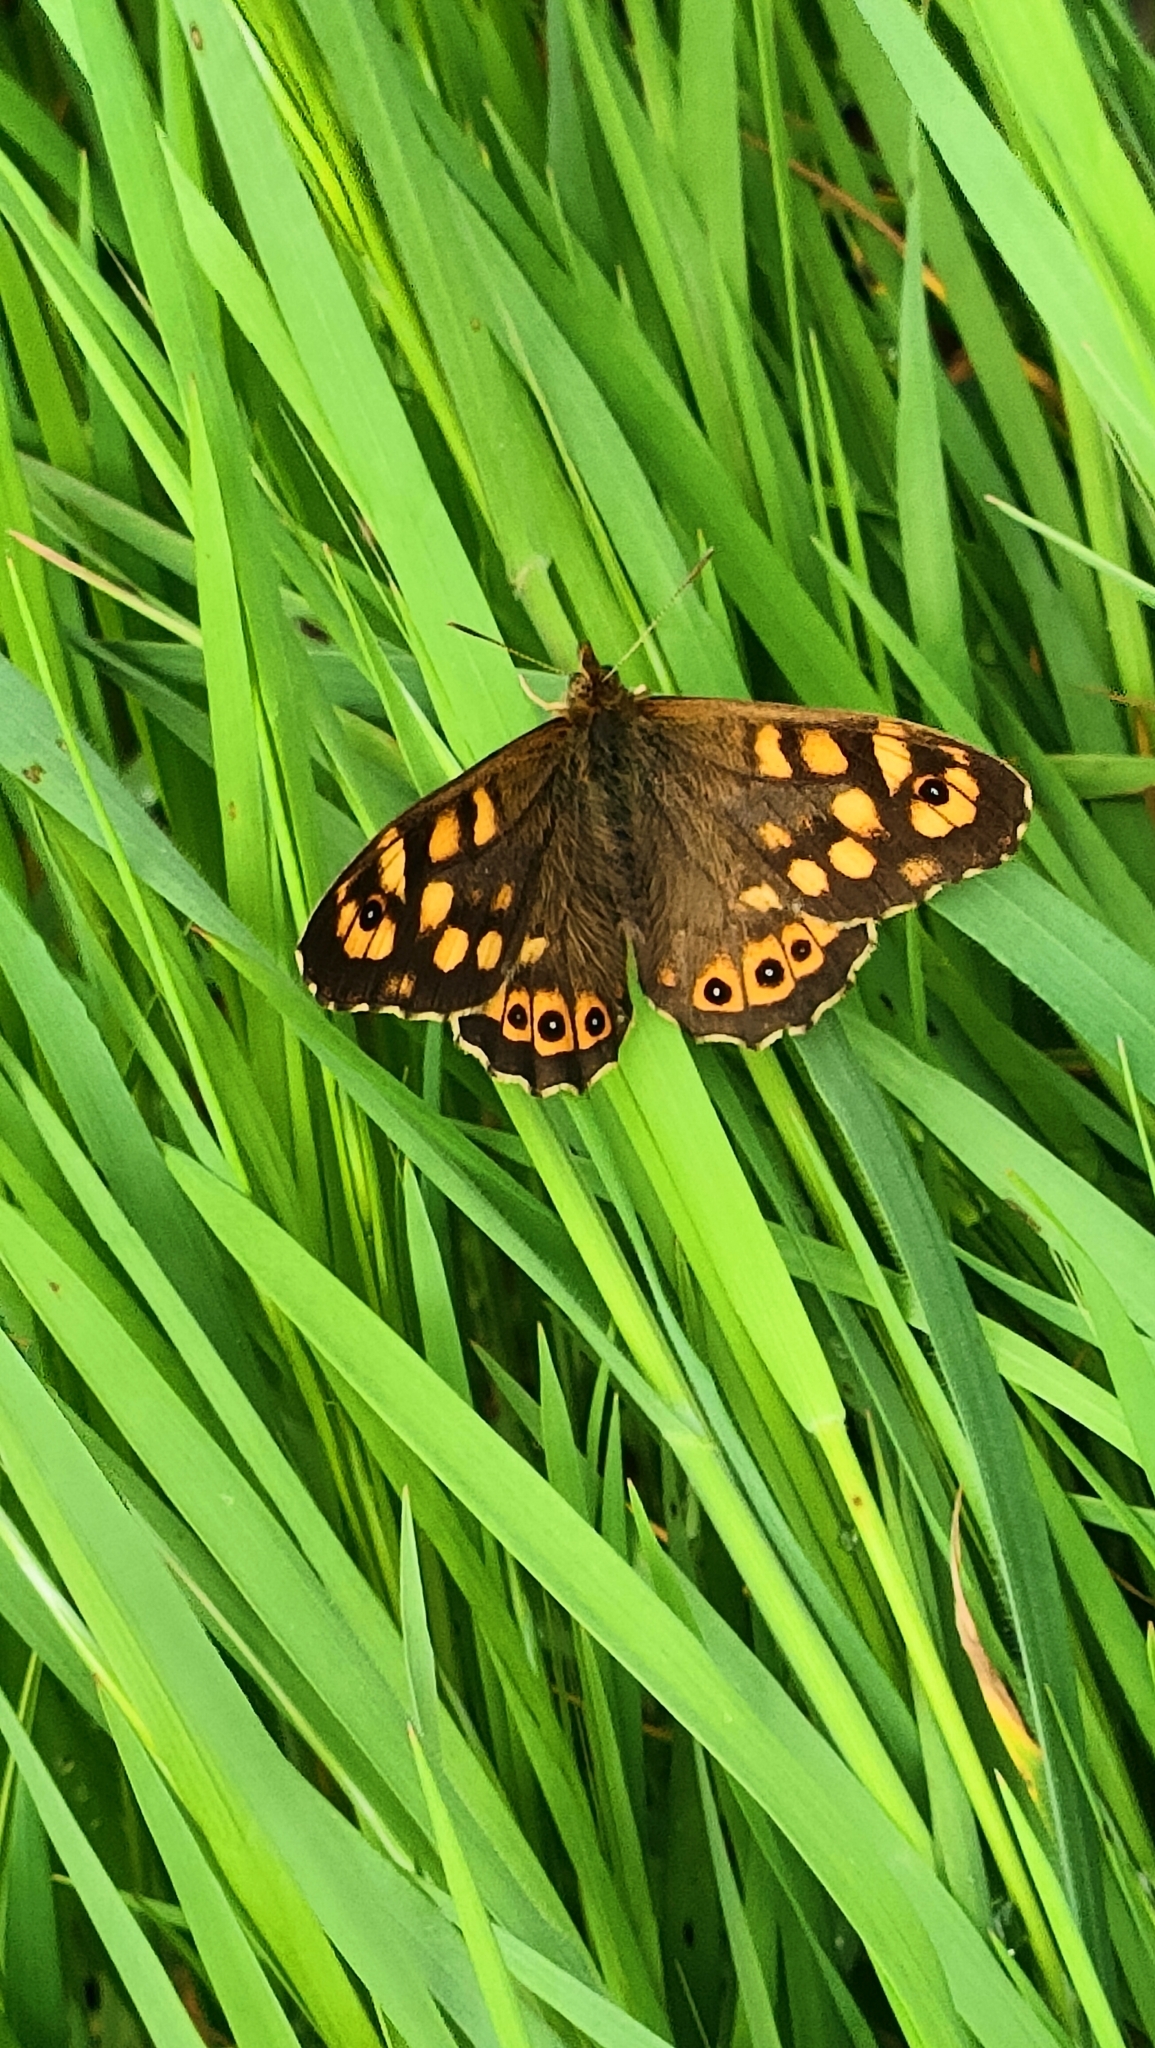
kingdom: Animalia
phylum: Arthropoda
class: Insecta
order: Lepidoptera
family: Nymphalidae
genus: Pararge
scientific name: Pararge aegeria
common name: Speckled wood
